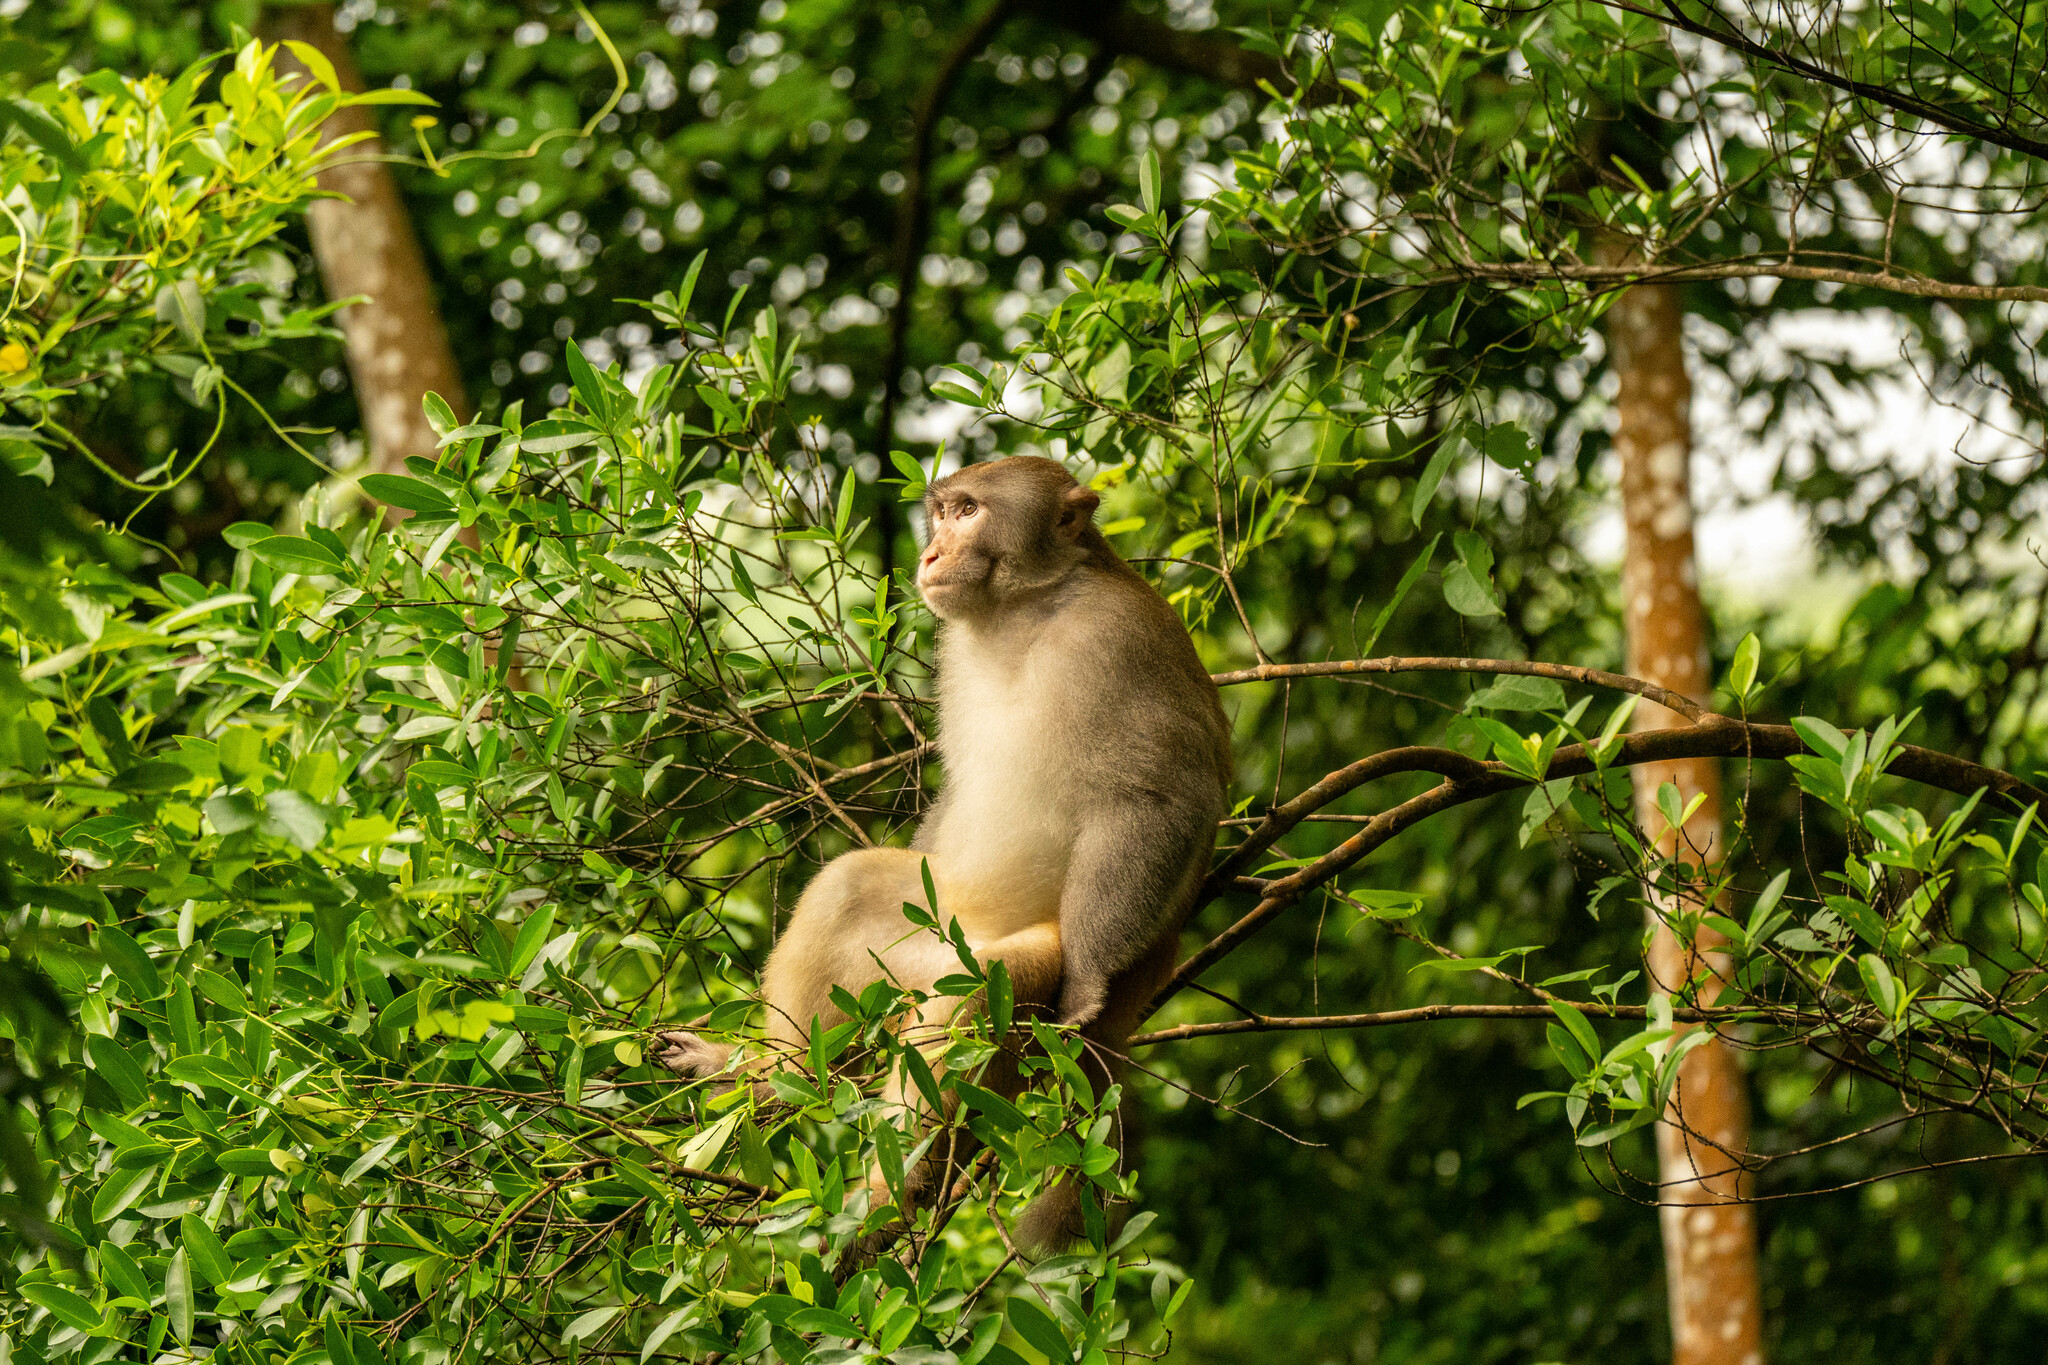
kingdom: Animalia
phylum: Chordata
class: Mammalia
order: Primates
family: Cercopithecidae
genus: Macaca
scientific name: Macaca mulatta
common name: Rhesus monkey
